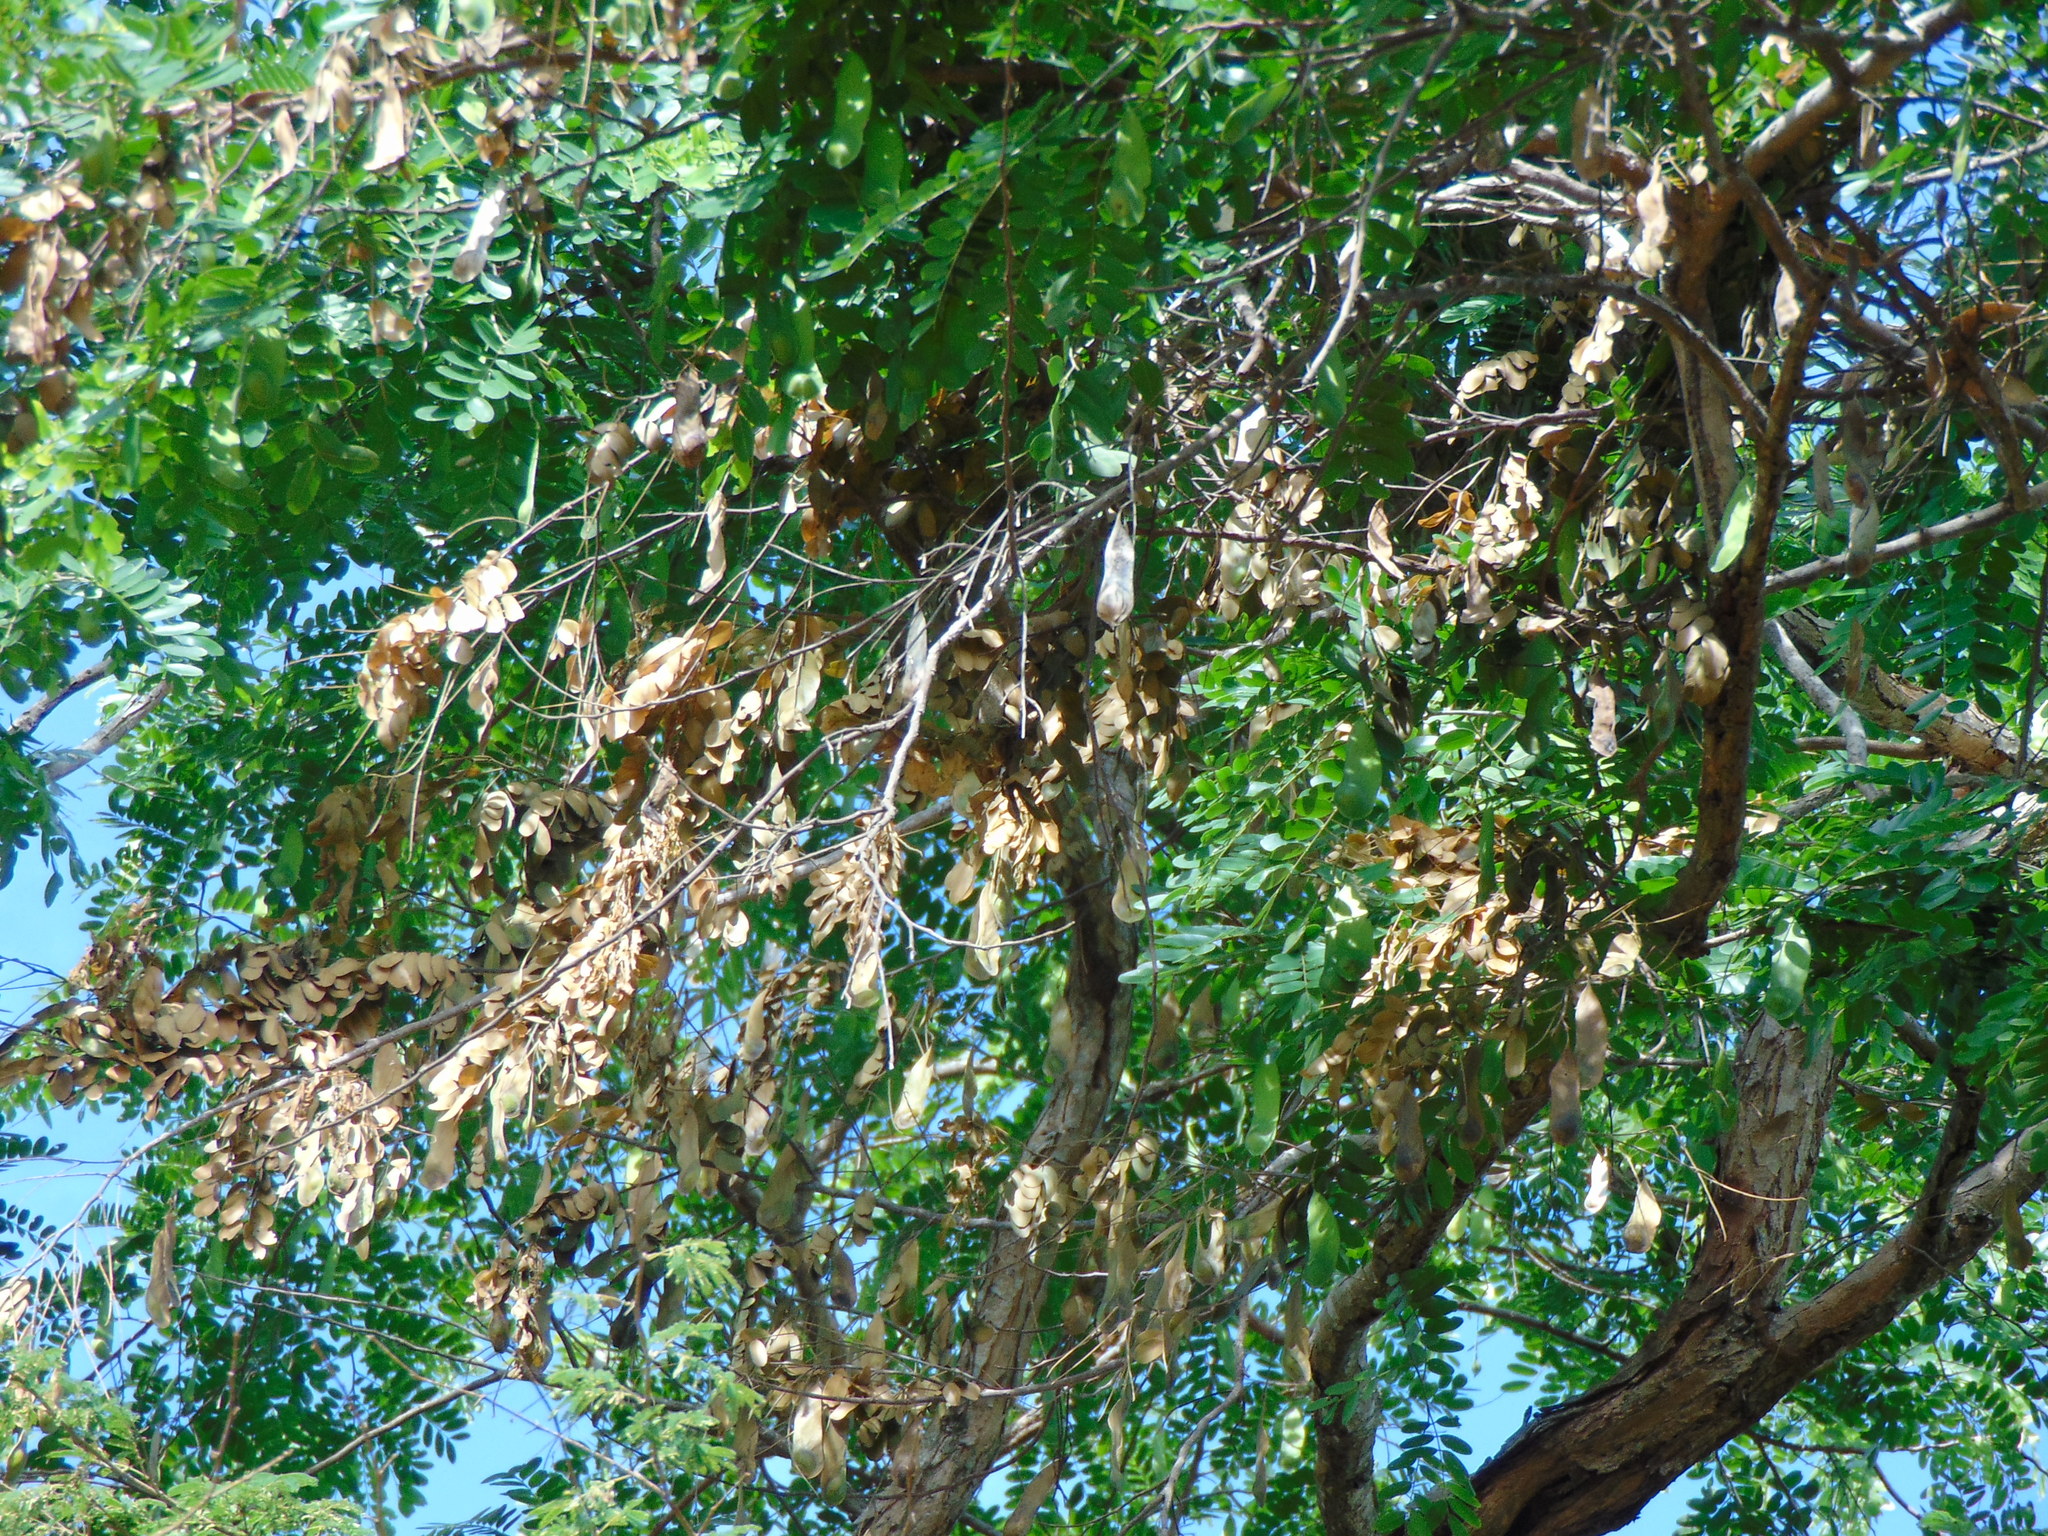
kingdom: Plantae
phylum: Tracheophyta
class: Magnoliopsida
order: Fabales
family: Fabaceae
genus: Platypodium
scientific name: Platypodium elegans
